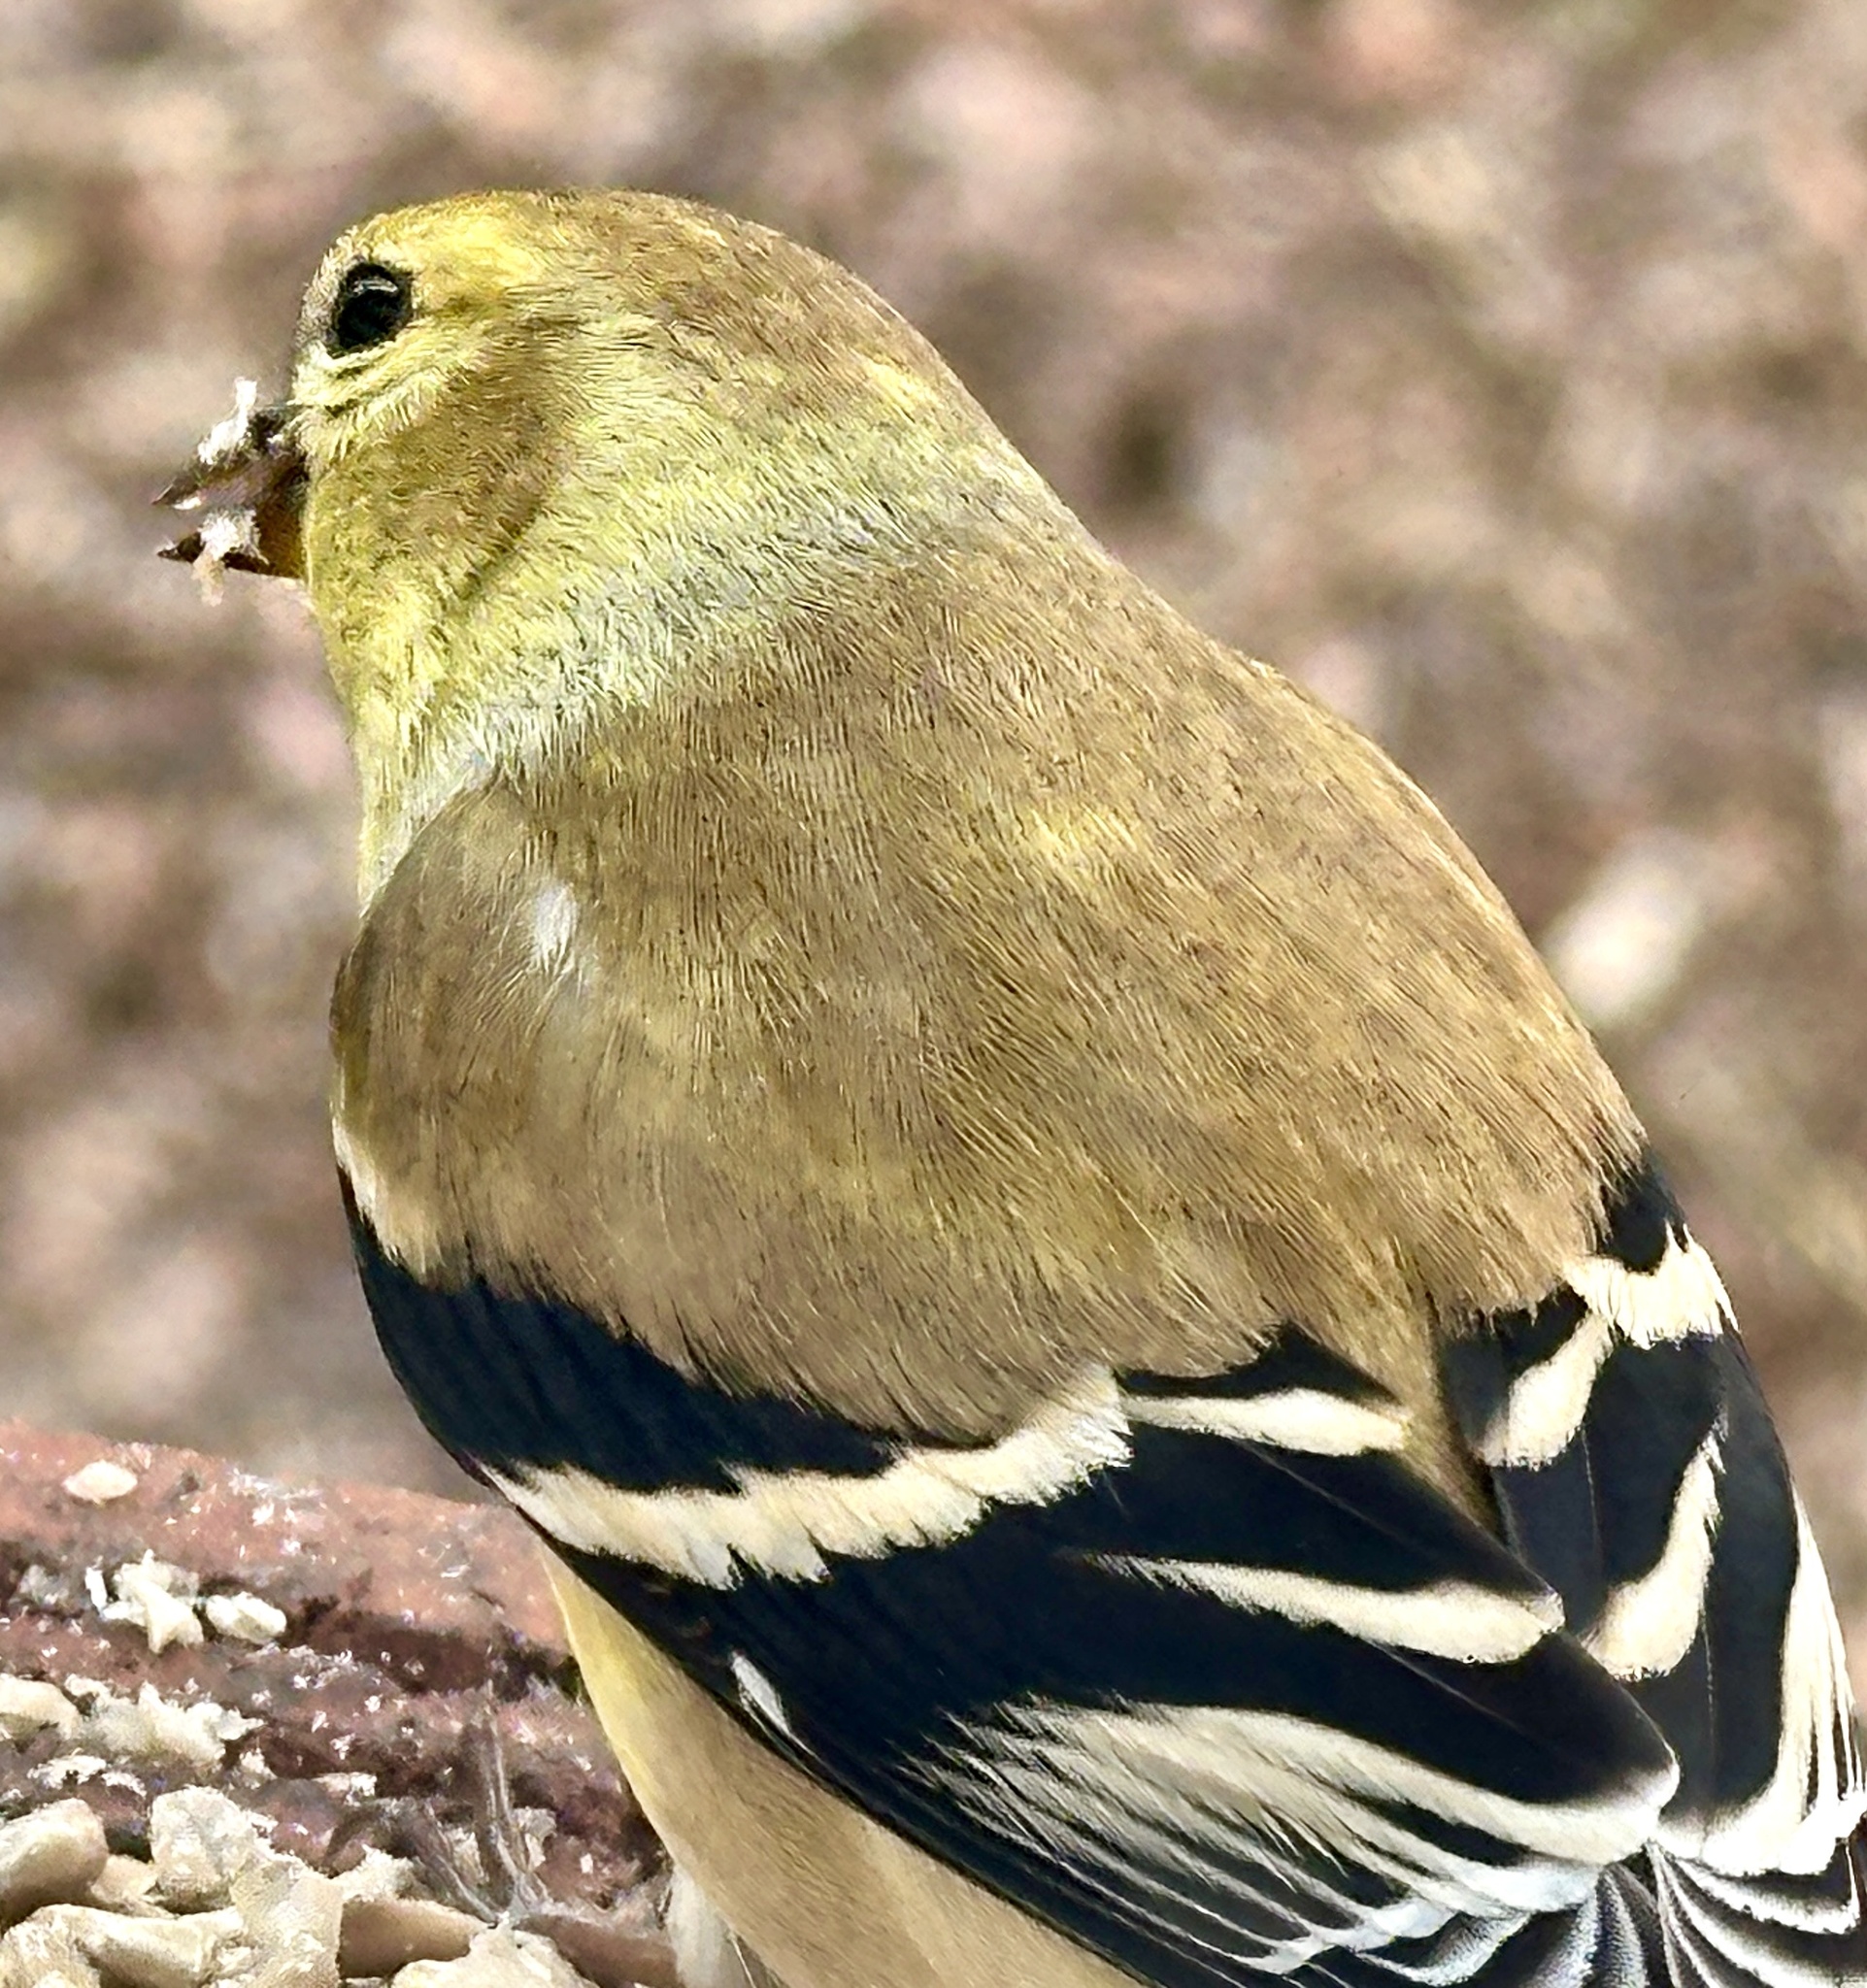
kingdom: Animalia
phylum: Chordata
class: Aves
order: Passeriformes
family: Fringillidae
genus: Spinus
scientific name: Spinus tristis
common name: American goldfinch
